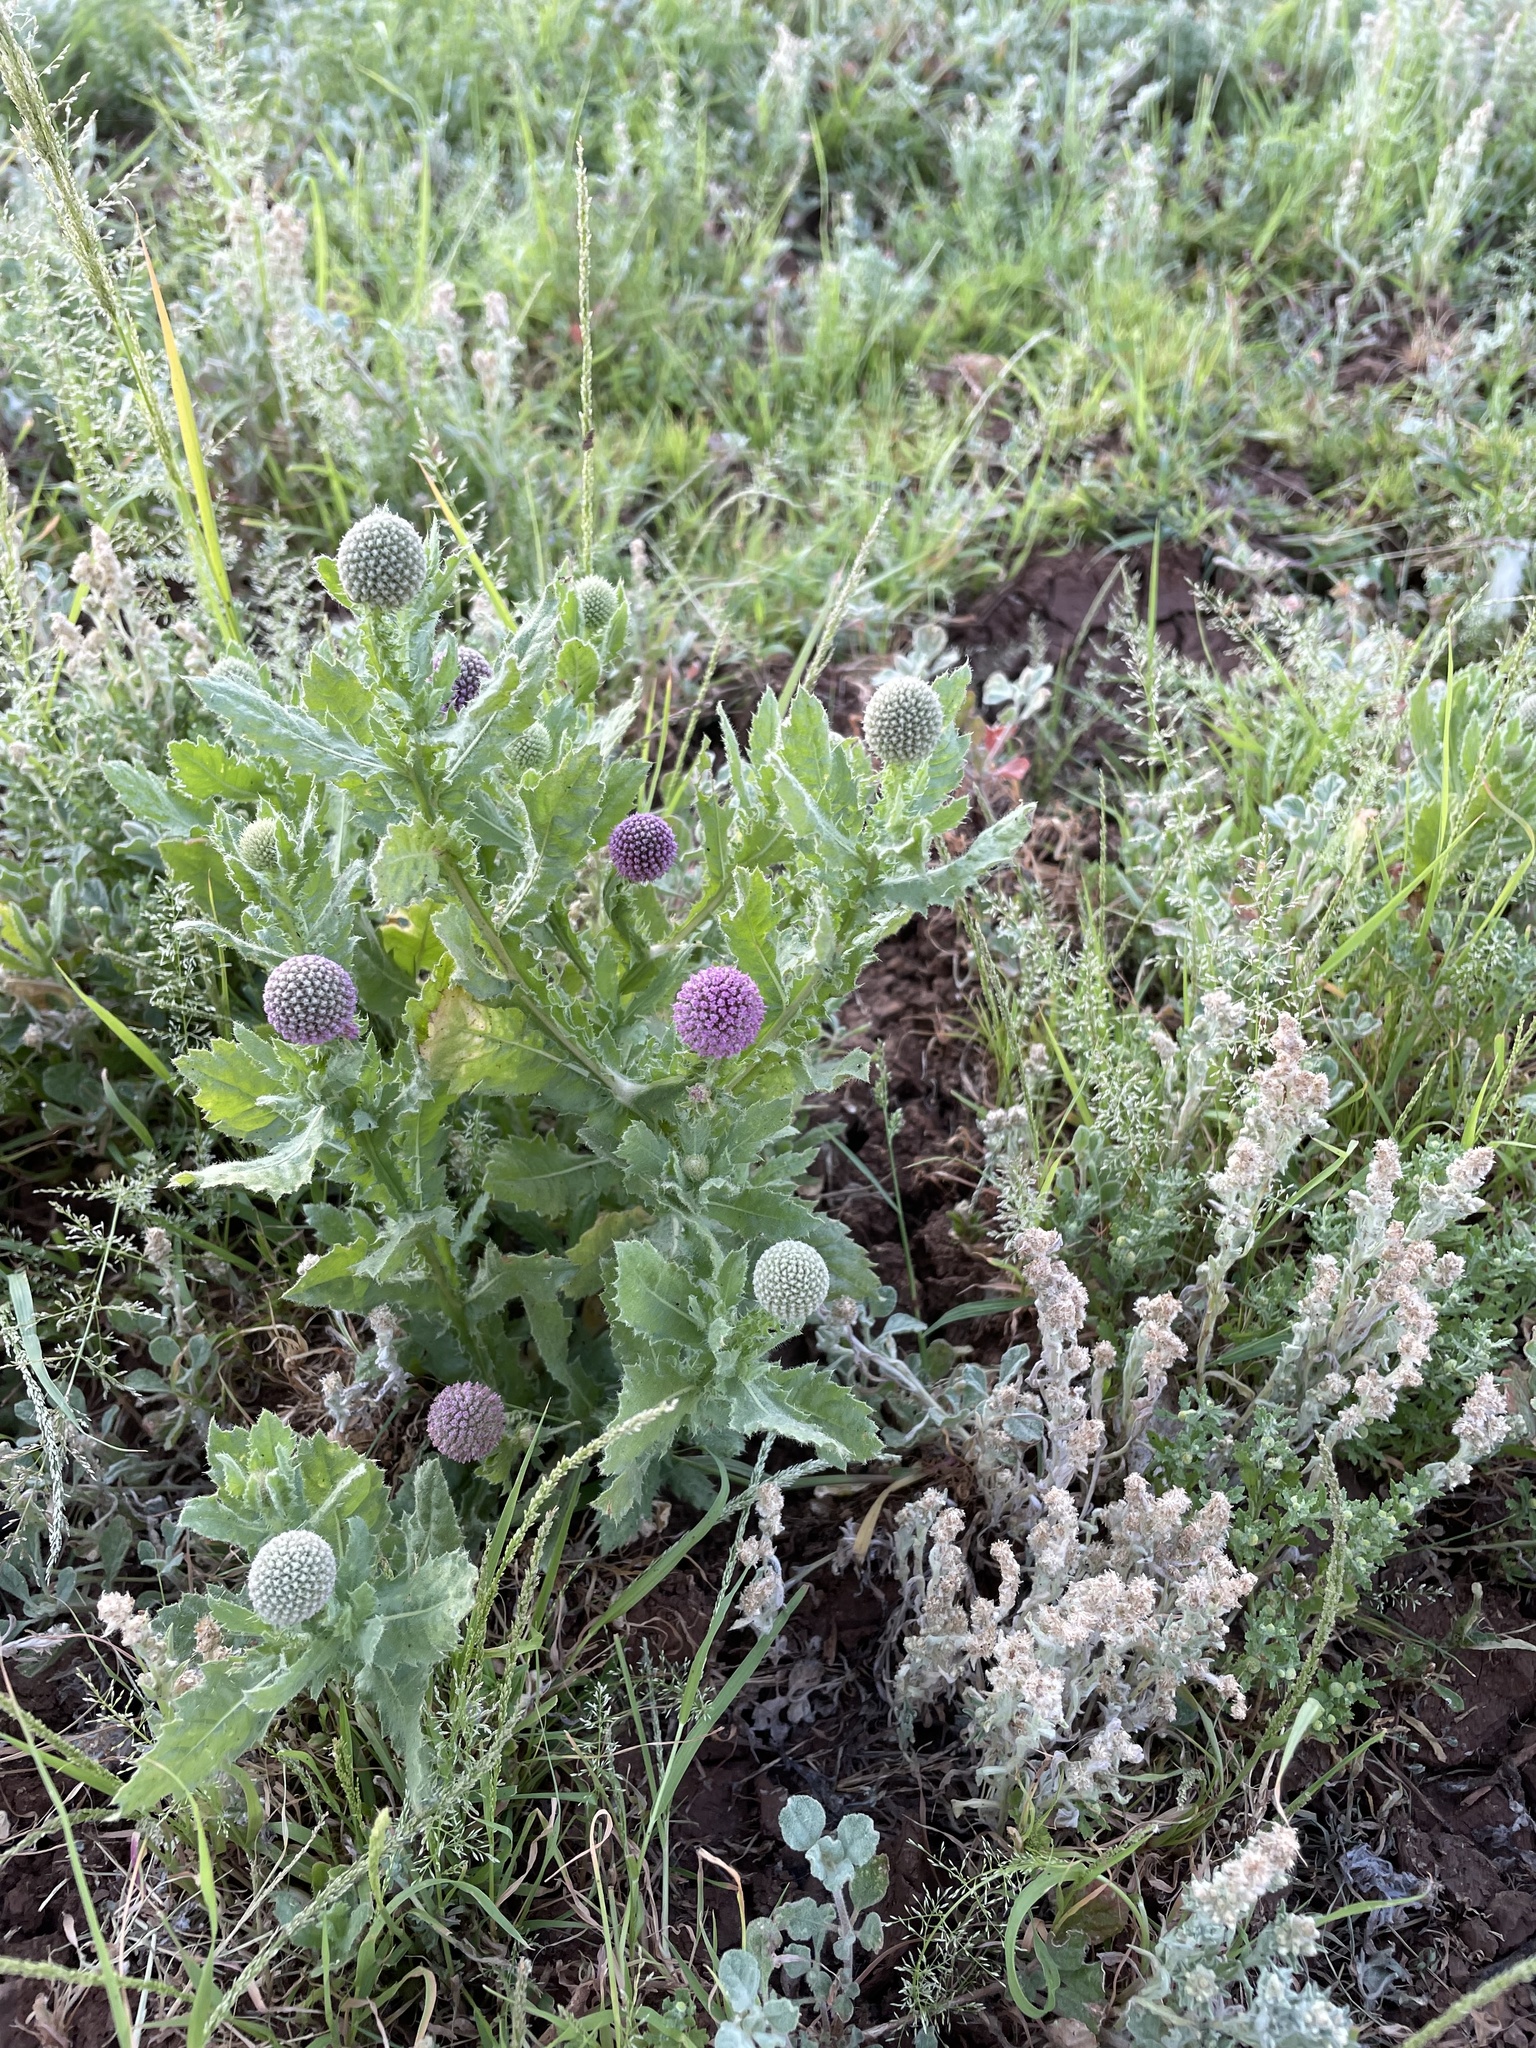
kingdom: Plantae
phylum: Tracheophyta
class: Magnoliopsida
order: Asterales
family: Asteraceae
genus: Pterocaulon
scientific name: Pterocaulon serrulatum
